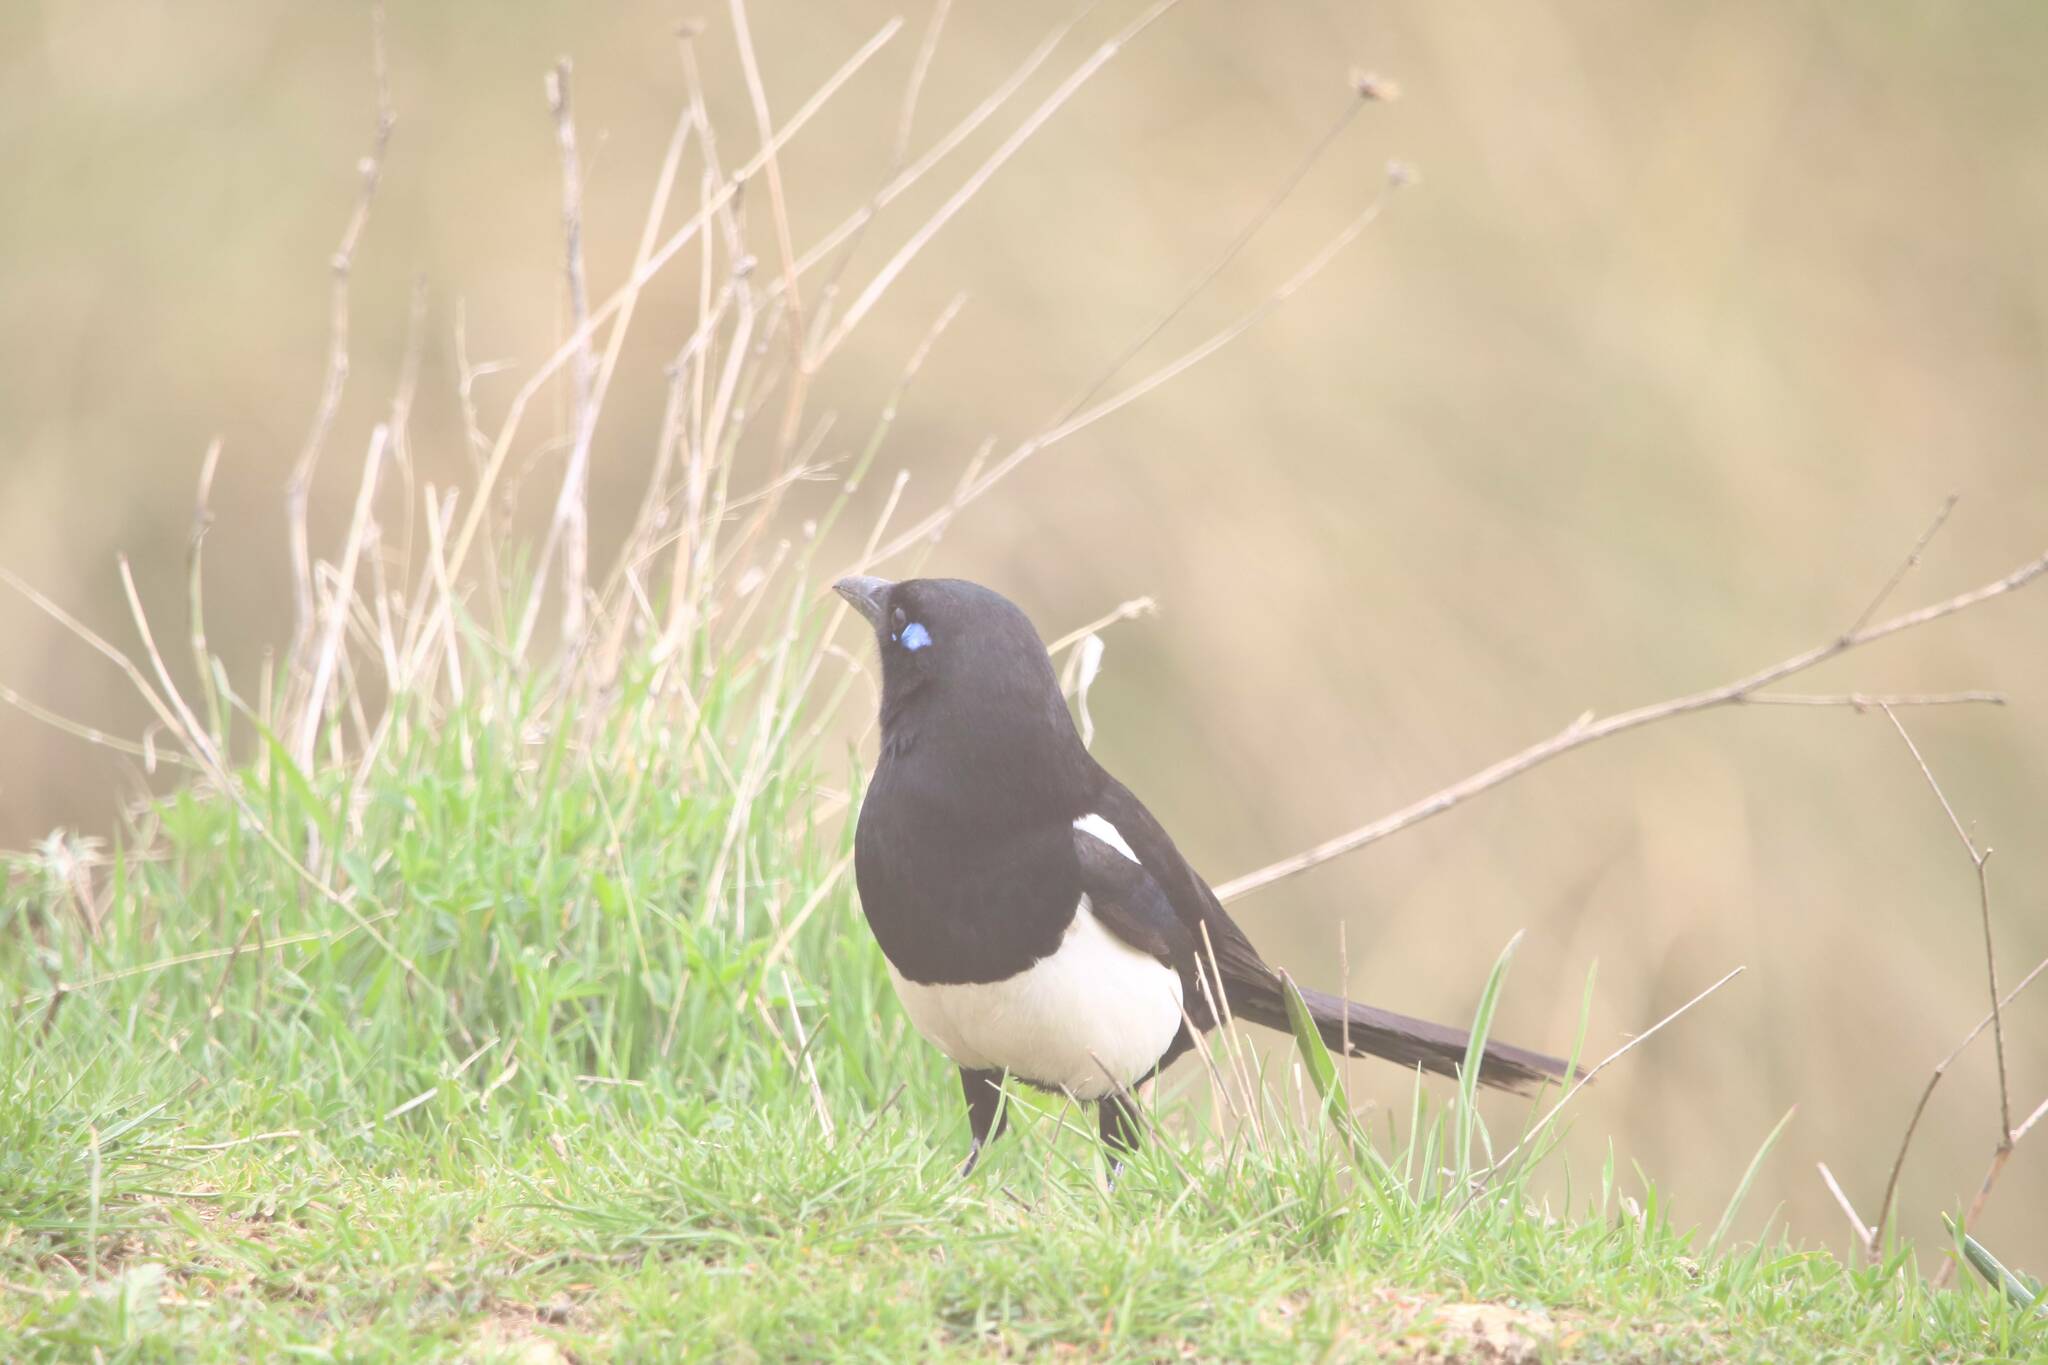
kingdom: Animalia
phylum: Chordata
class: Aves
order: Passeriformes
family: Corvidae
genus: Pica
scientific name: Pica mauritanica
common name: Maghreb magpie
